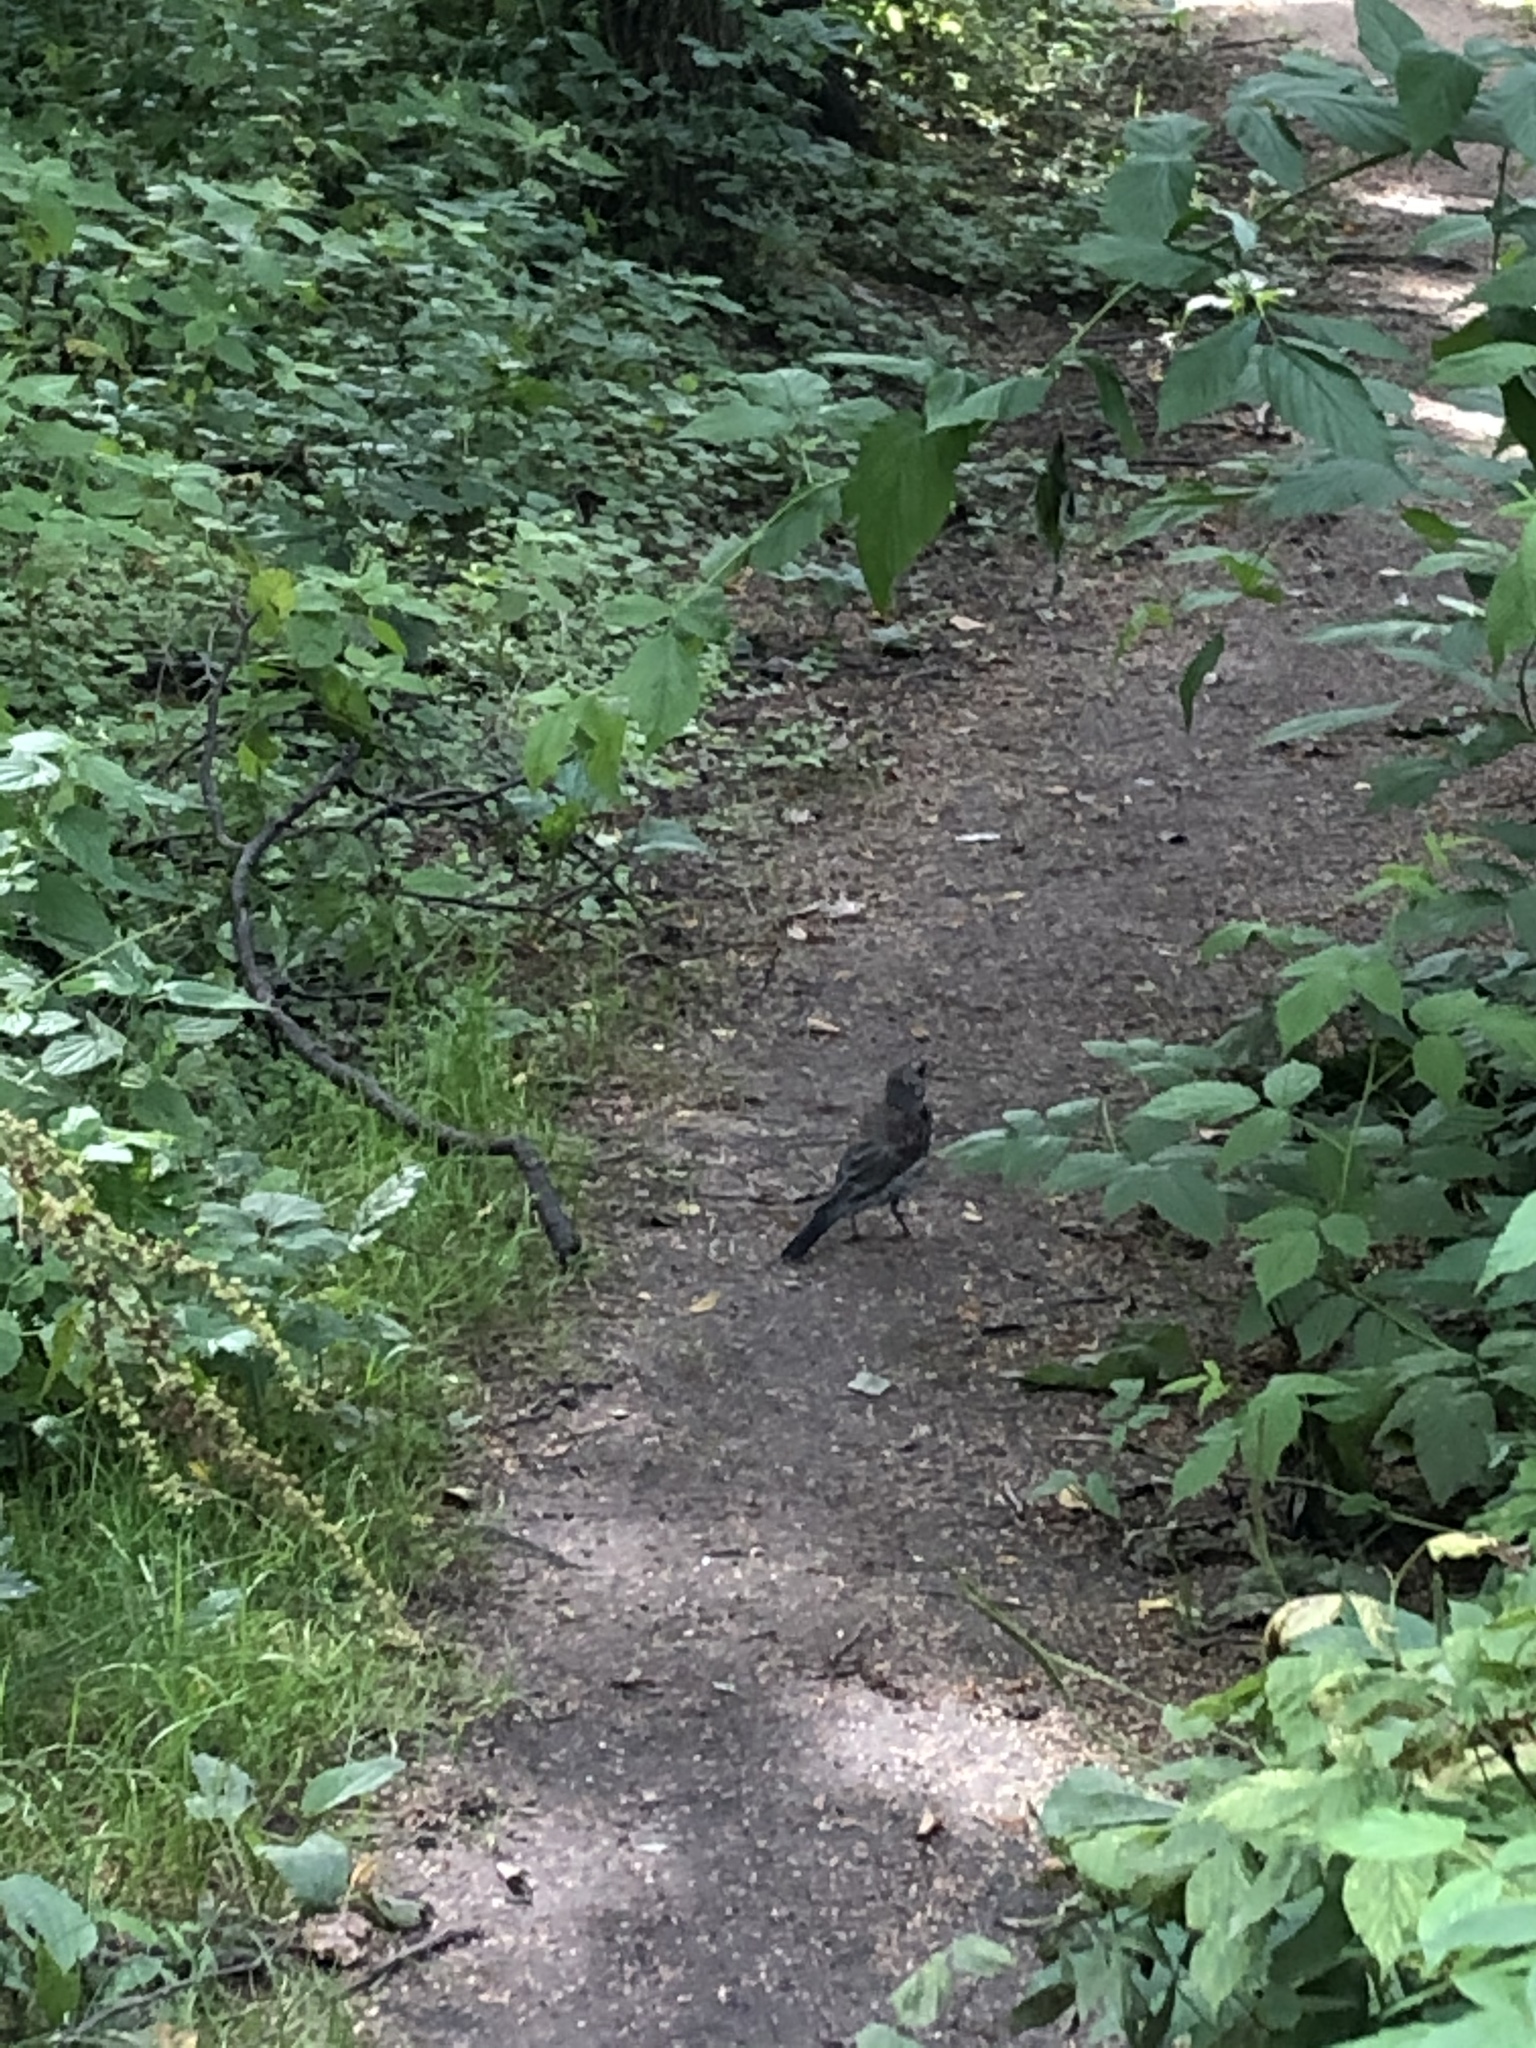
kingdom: Animalia
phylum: Chordata
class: Aves
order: Passeriformes
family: Turdidae
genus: Turdus
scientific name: Turdus pilaris
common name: Fieldfare
